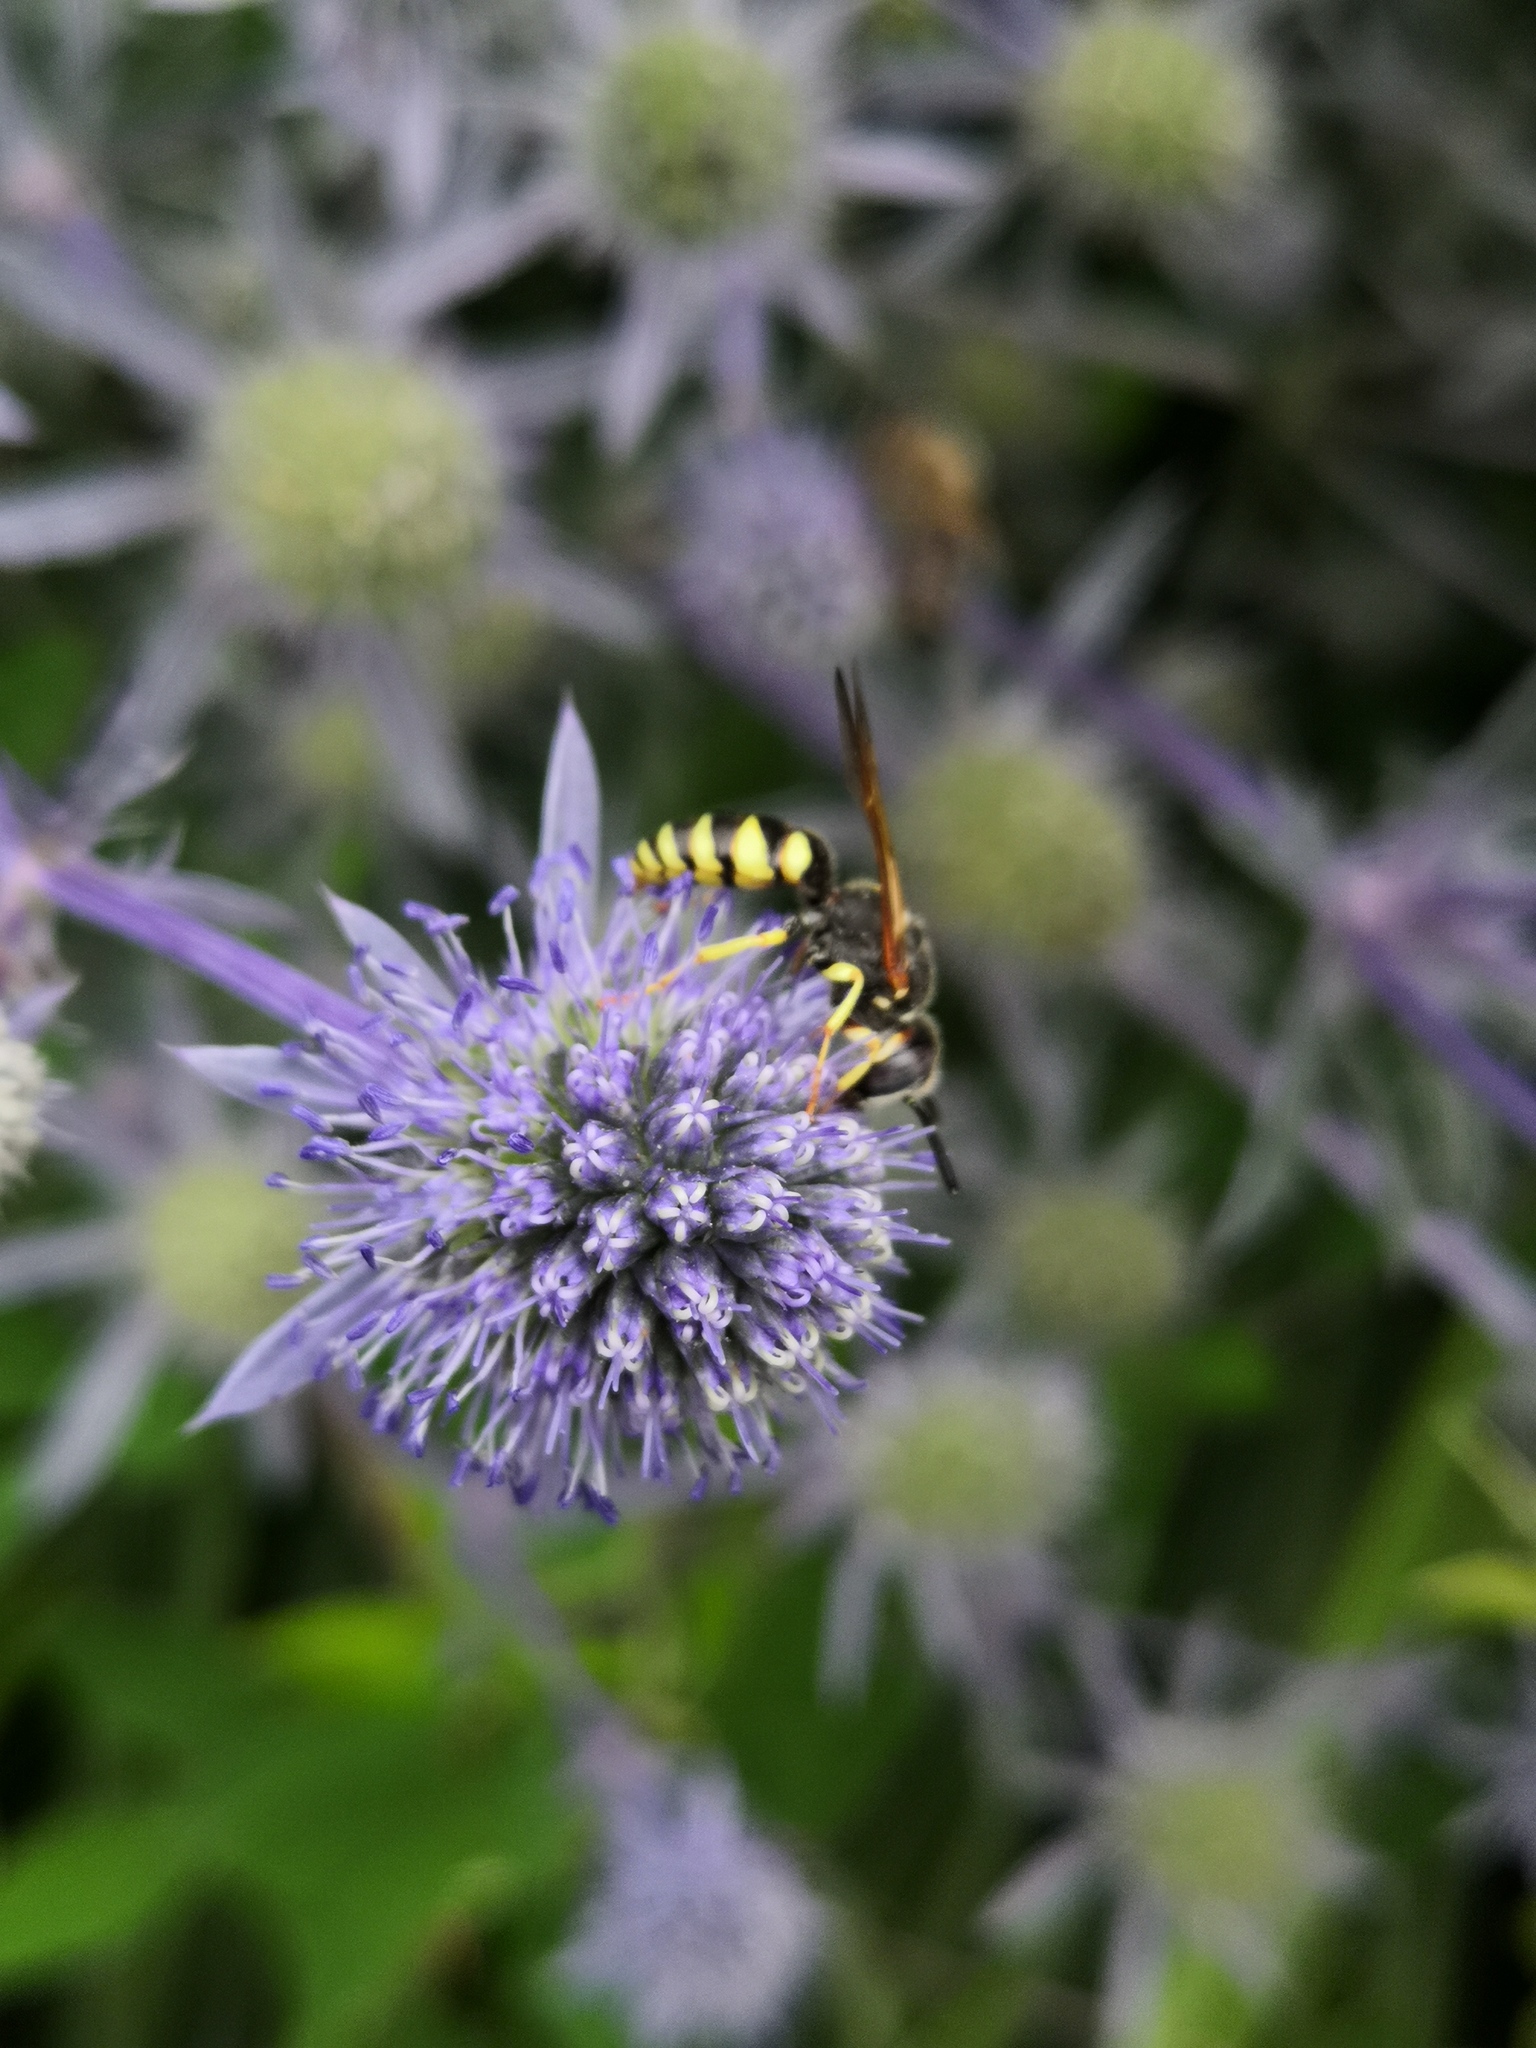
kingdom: Animalia
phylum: Arthropoda
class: Insecta
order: Hymenoptera
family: Crabronidae
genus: Philanthus
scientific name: Philanthus triangulum
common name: Bee wolf
